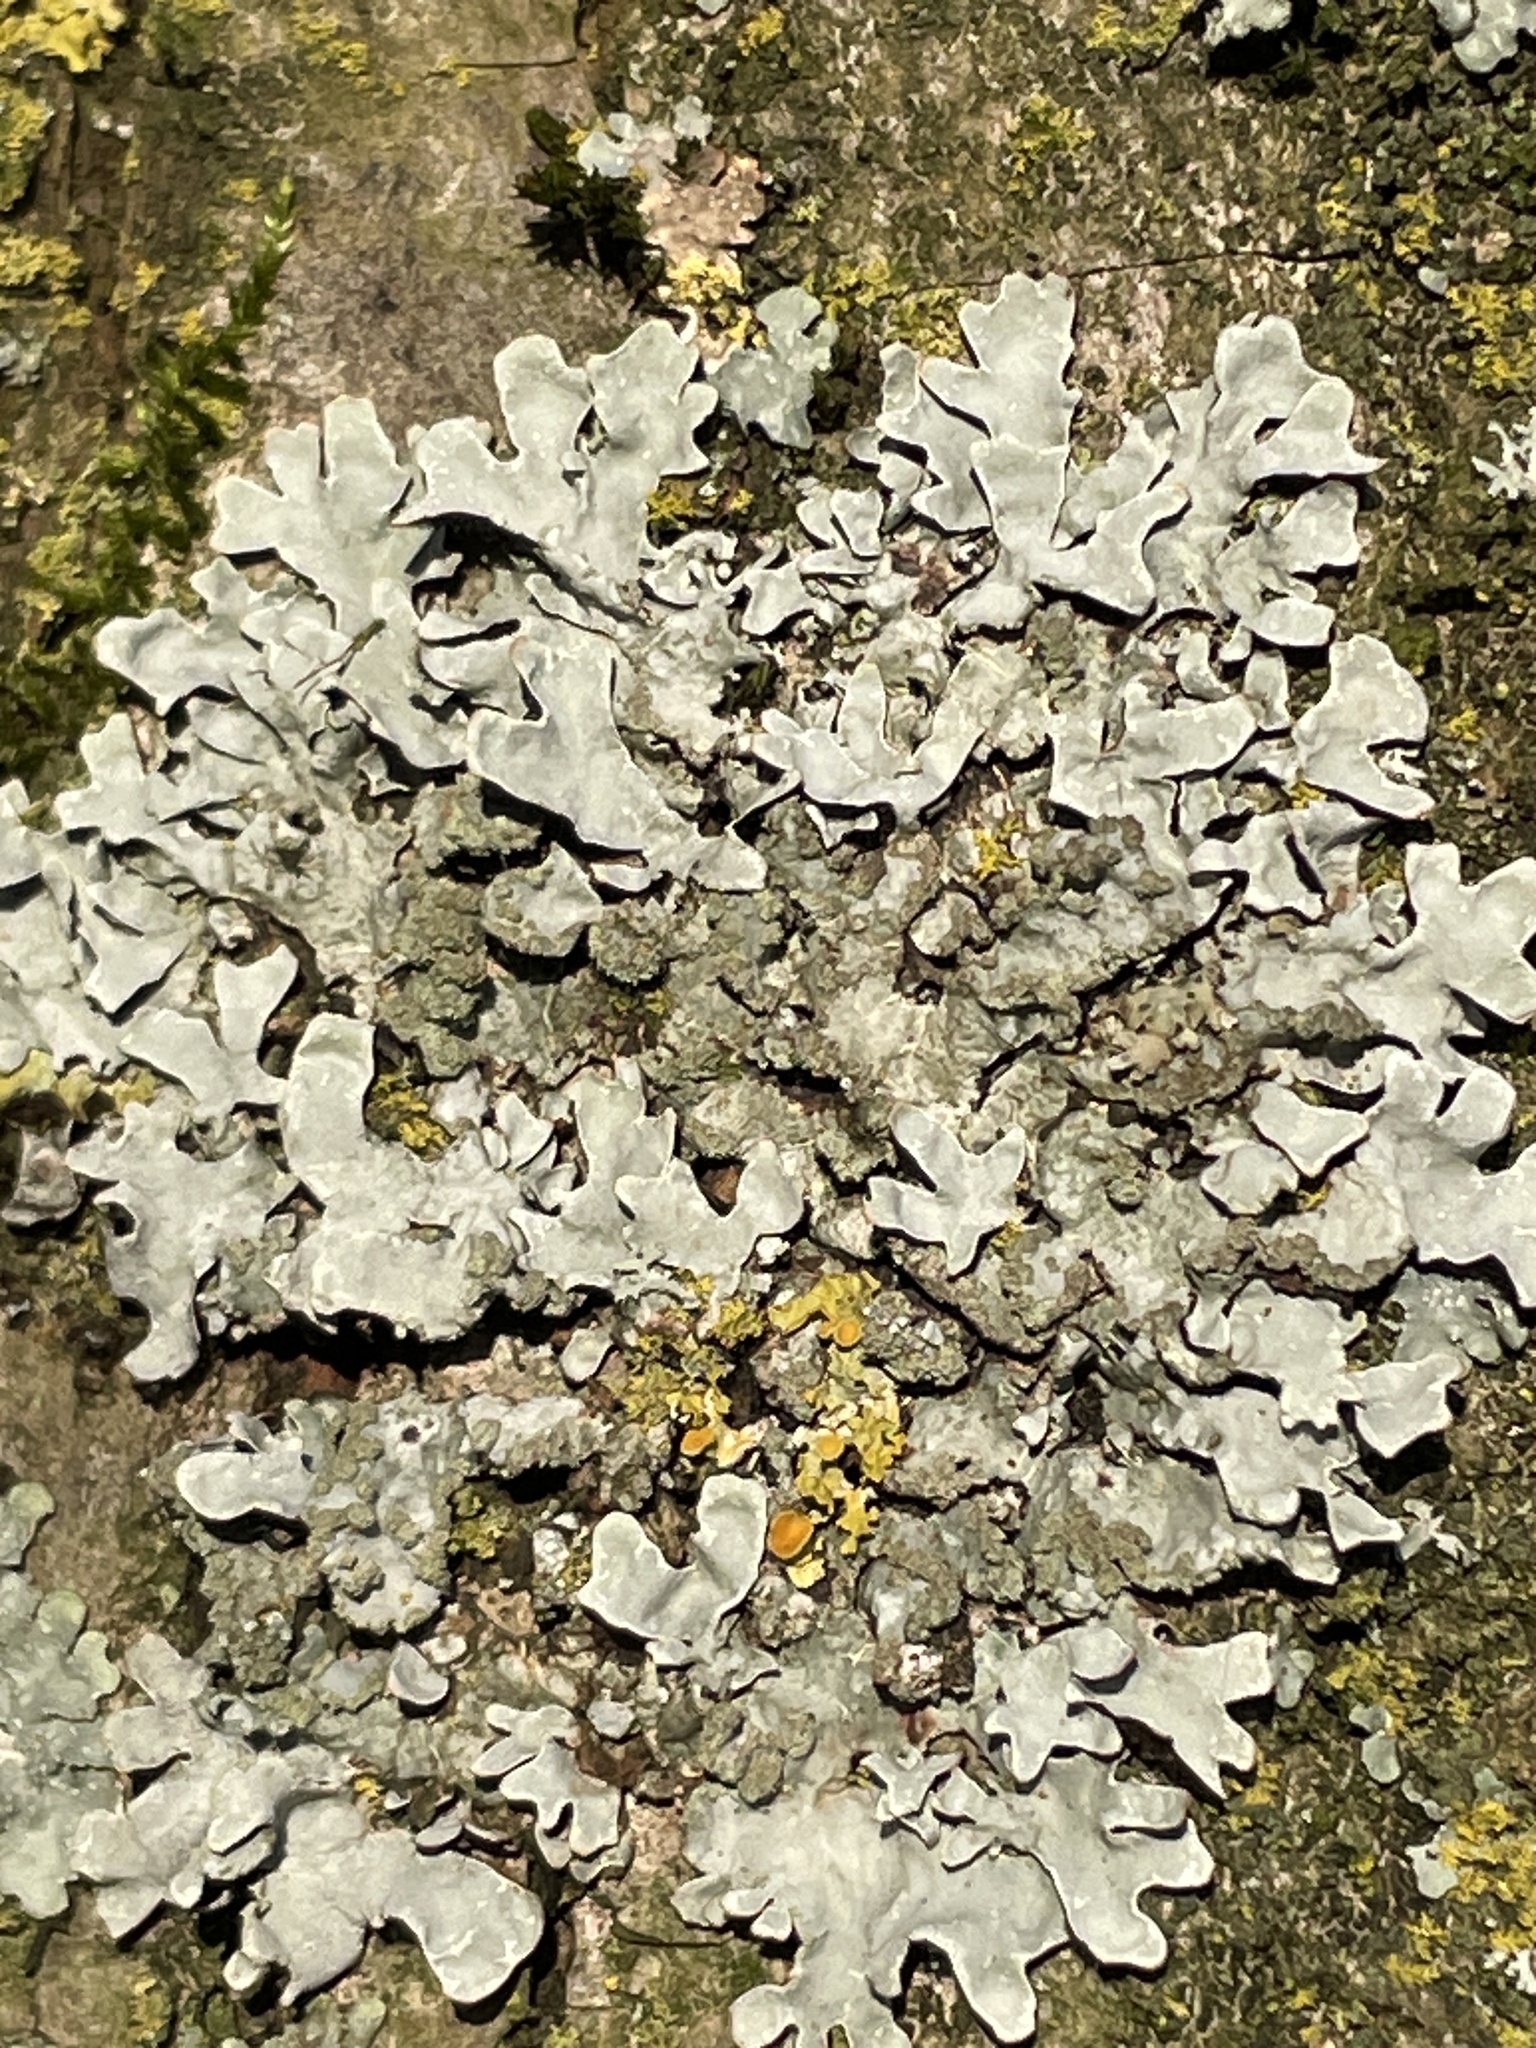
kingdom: Fungi
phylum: Ascomycota
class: Lecanoromycetes
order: Lecanorales
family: Parmeliaceae
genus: Parmelia
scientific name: Parmelia sulcata
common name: Netted shield lichen
